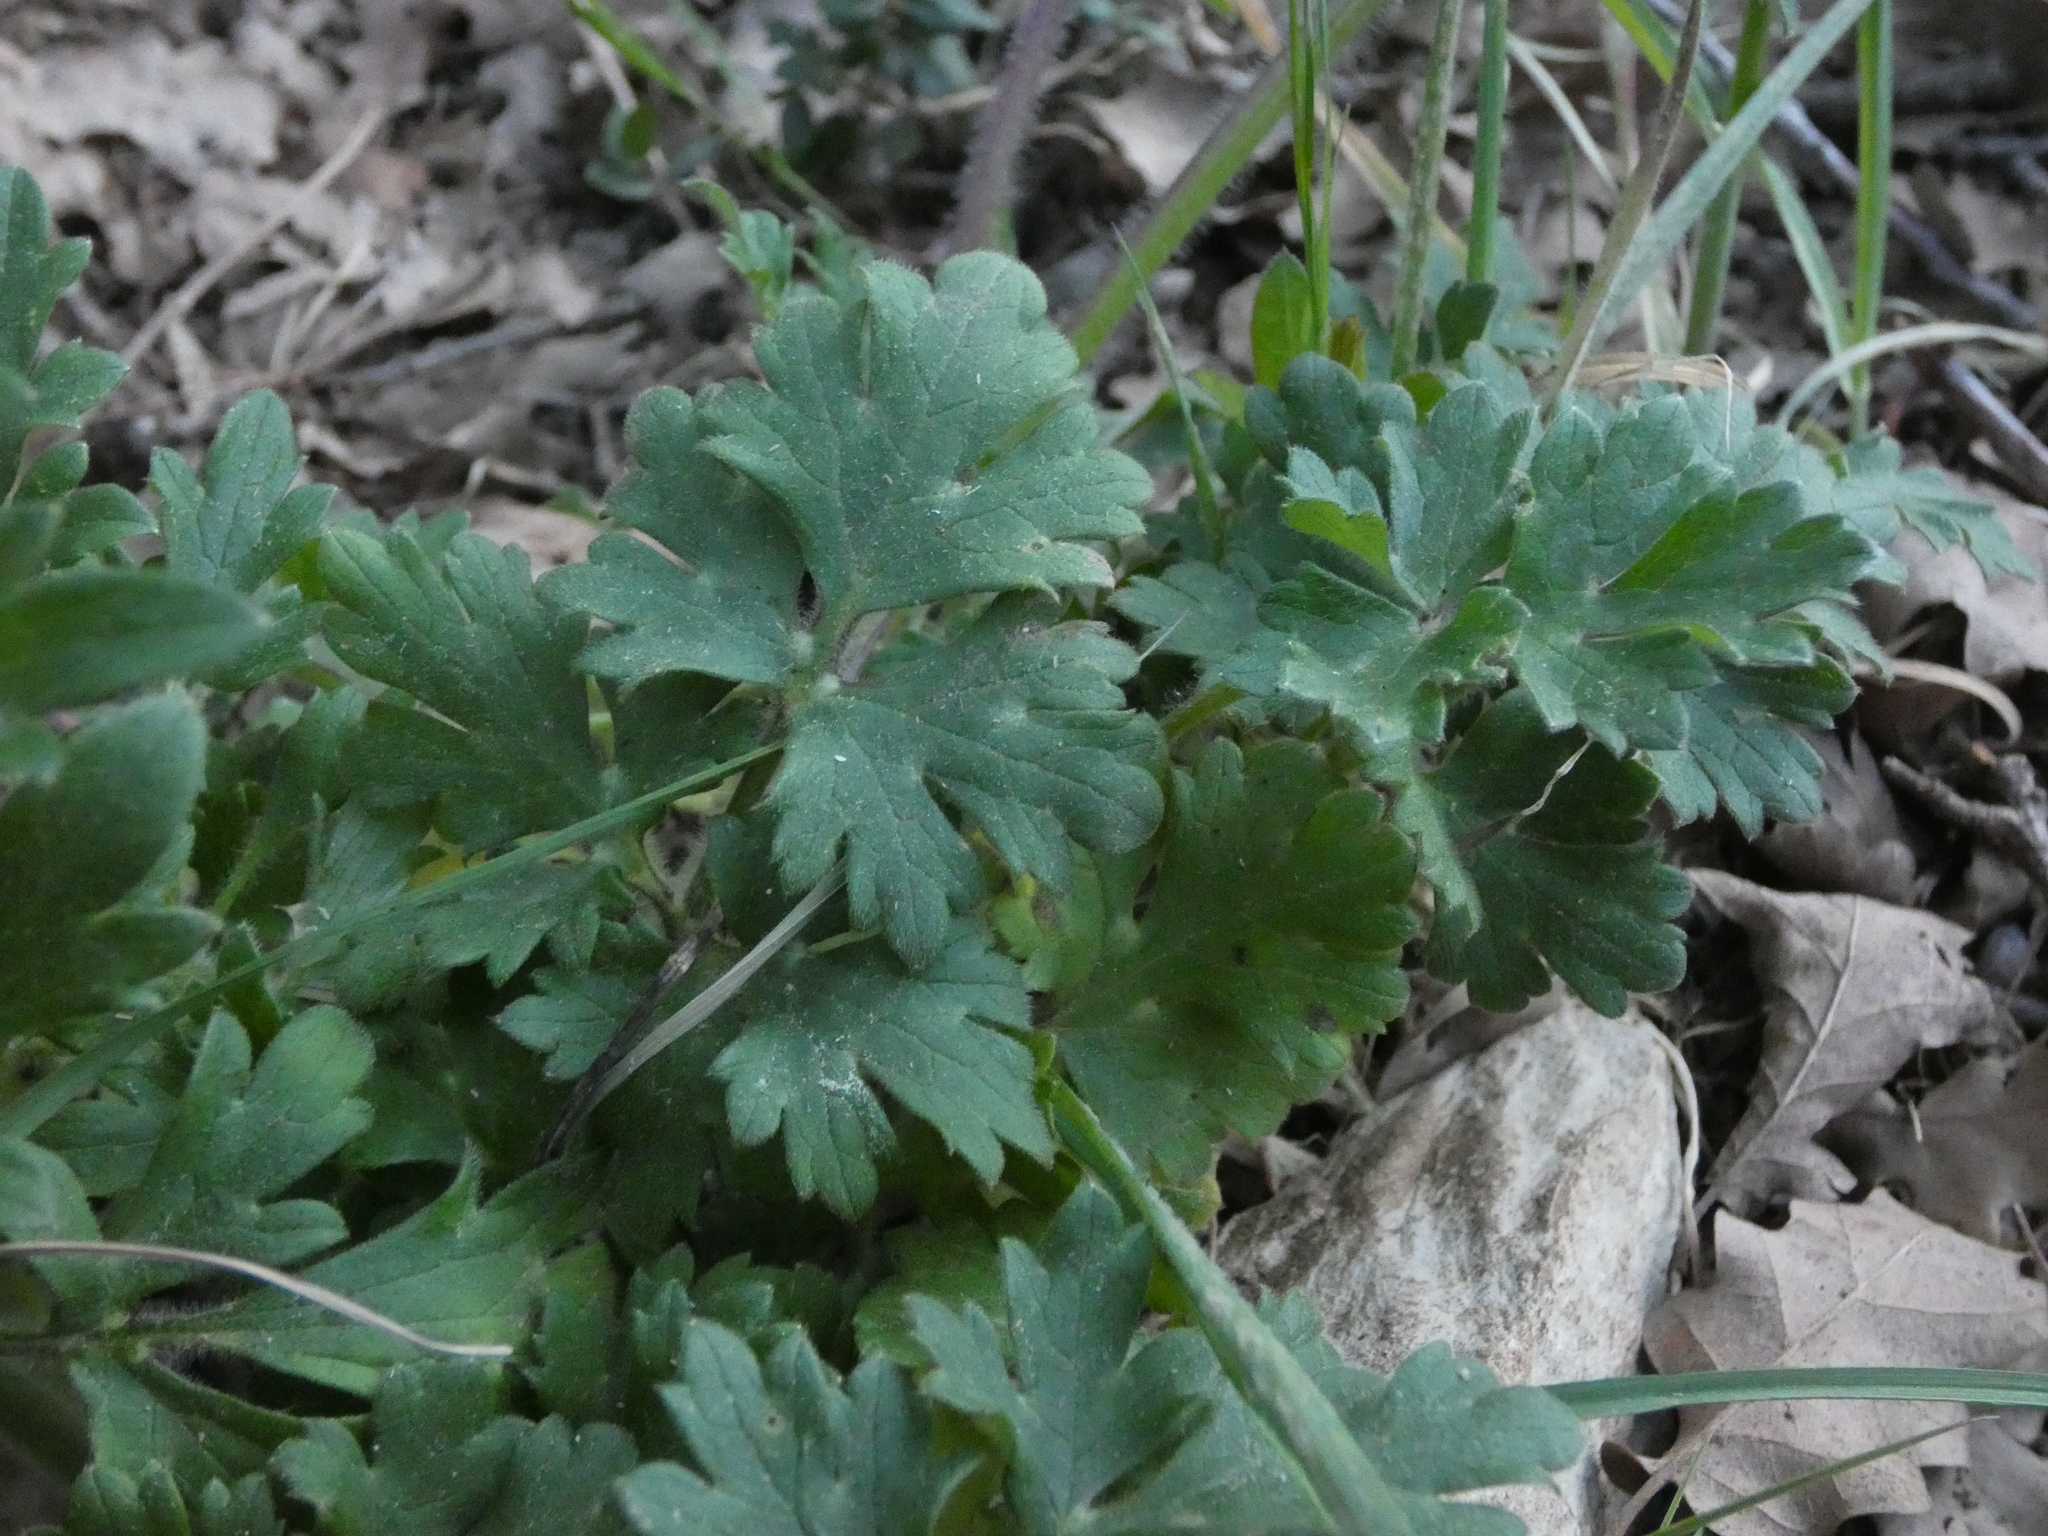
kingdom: Plantae
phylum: Tracheophyta
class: Magnoliopsida
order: Ranunculales
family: Ranunculaceae
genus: Ranunculus
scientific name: Ranunculus bulbosus
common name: Bulbous buttercup
